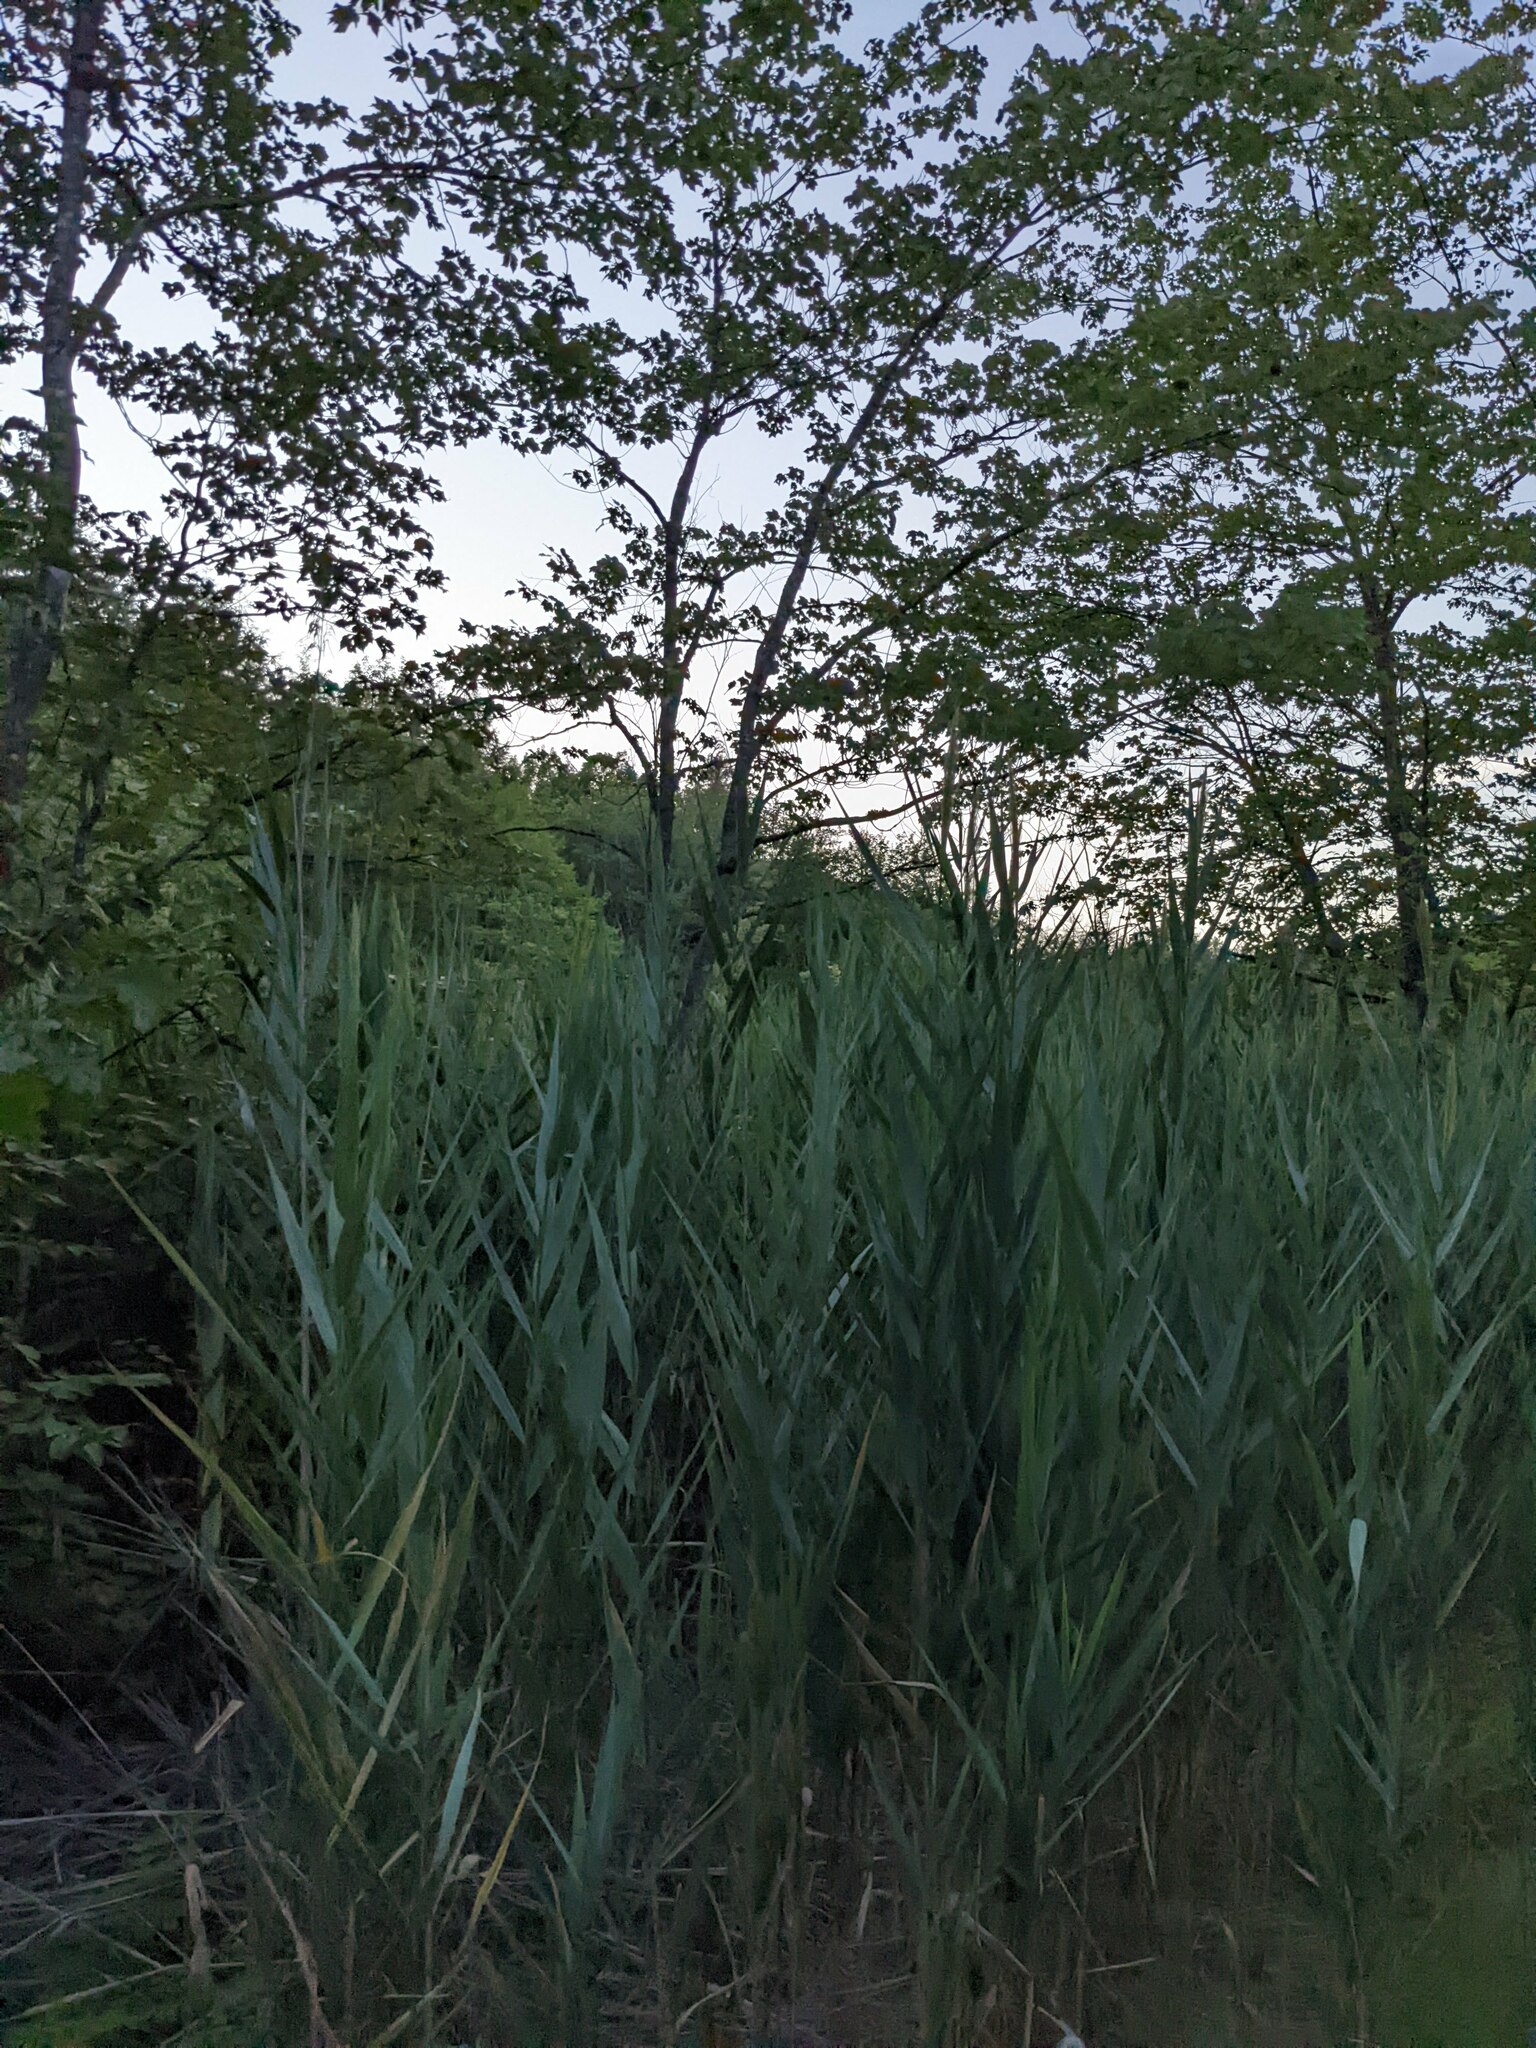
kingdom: Plantae
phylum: Tracheophyta
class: Liliopsida
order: Poales
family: Poaceae
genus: Phragmites
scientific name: Phragmites australis
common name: Common reed
